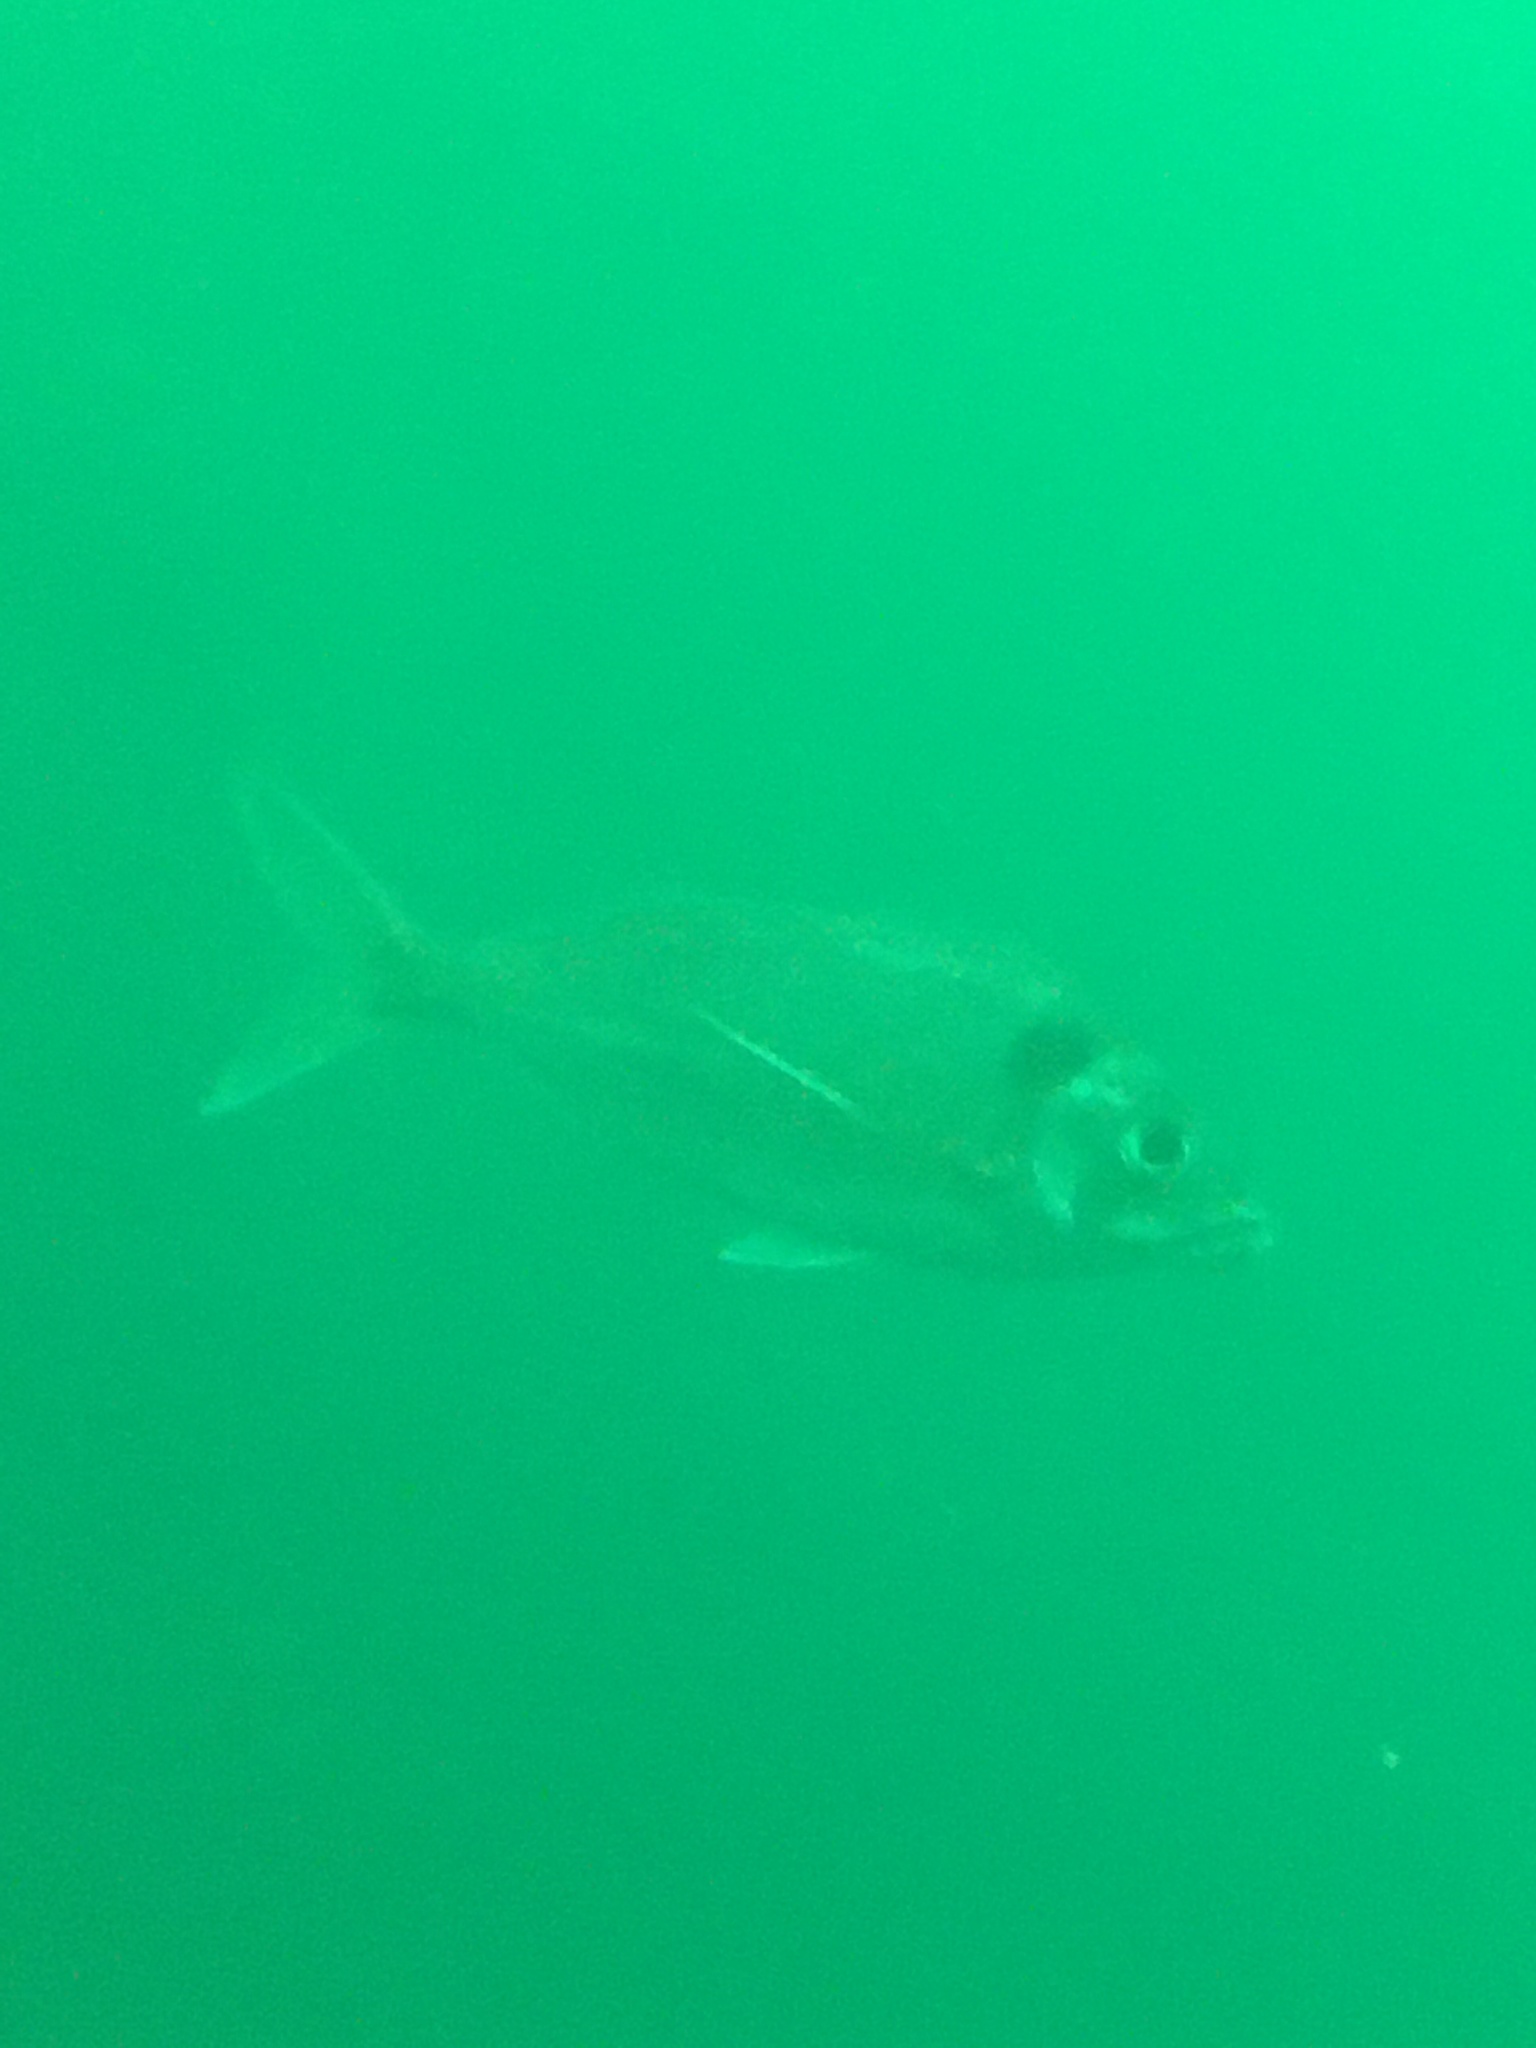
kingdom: Animalia
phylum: Chordata
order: Perciformes
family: Cheilodactylidae
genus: Nemadactylus
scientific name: Nemadactylus macropterus
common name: Tarakihi
